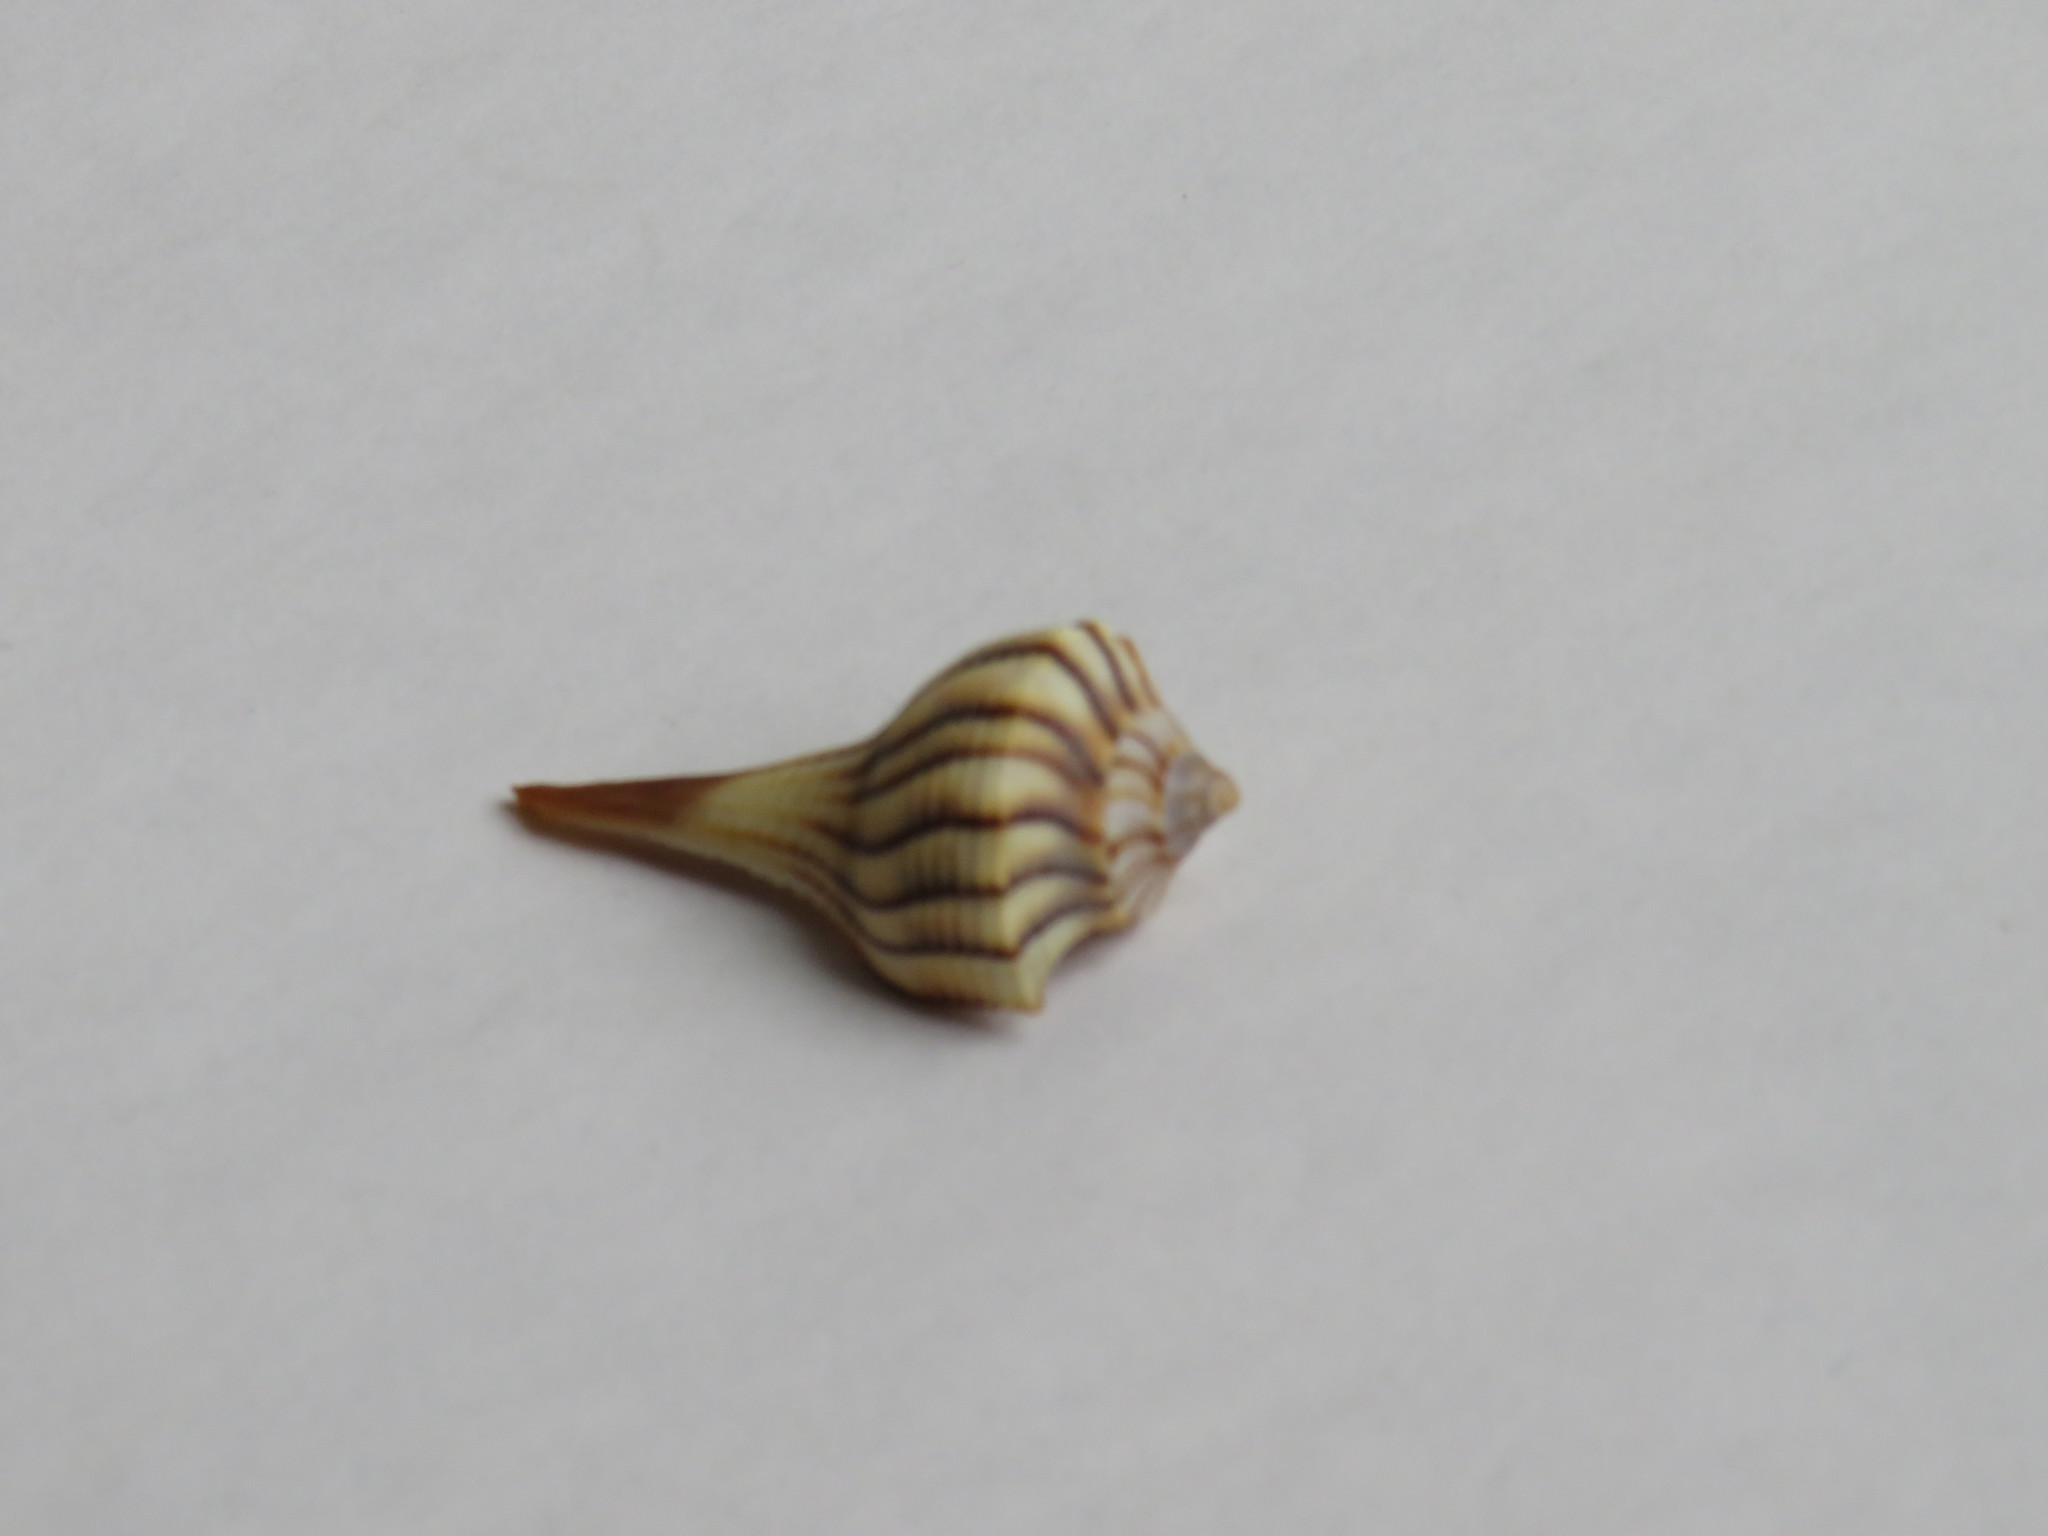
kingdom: Animalia
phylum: Mollusca
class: Gastropoda
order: Neogastropoda
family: Busyconidae
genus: Sinistrofulgur
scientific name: Sinistrofulgur sinistrum
